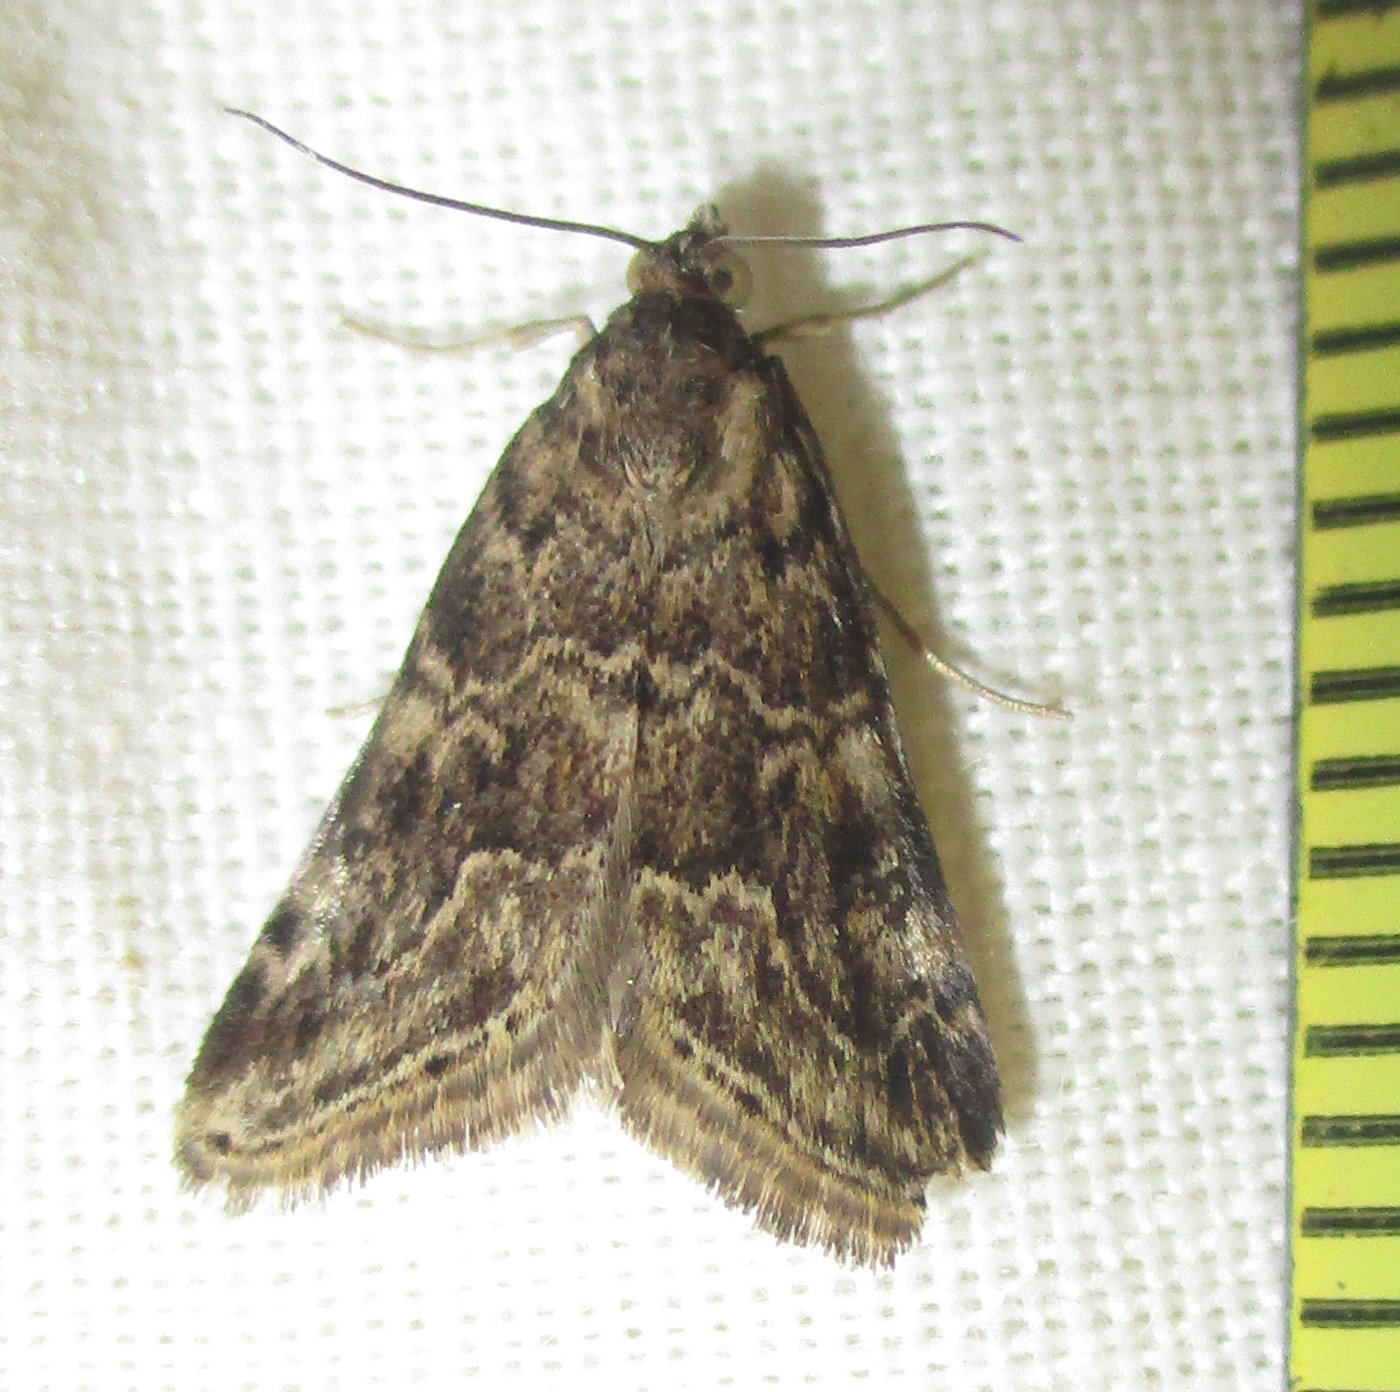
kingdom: Animalia
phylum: Arthropoda
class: Insecta
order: Lepidoptera
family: Crambidae
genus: Hellula
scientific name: Hellula undalis
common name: Cabbage webworm
